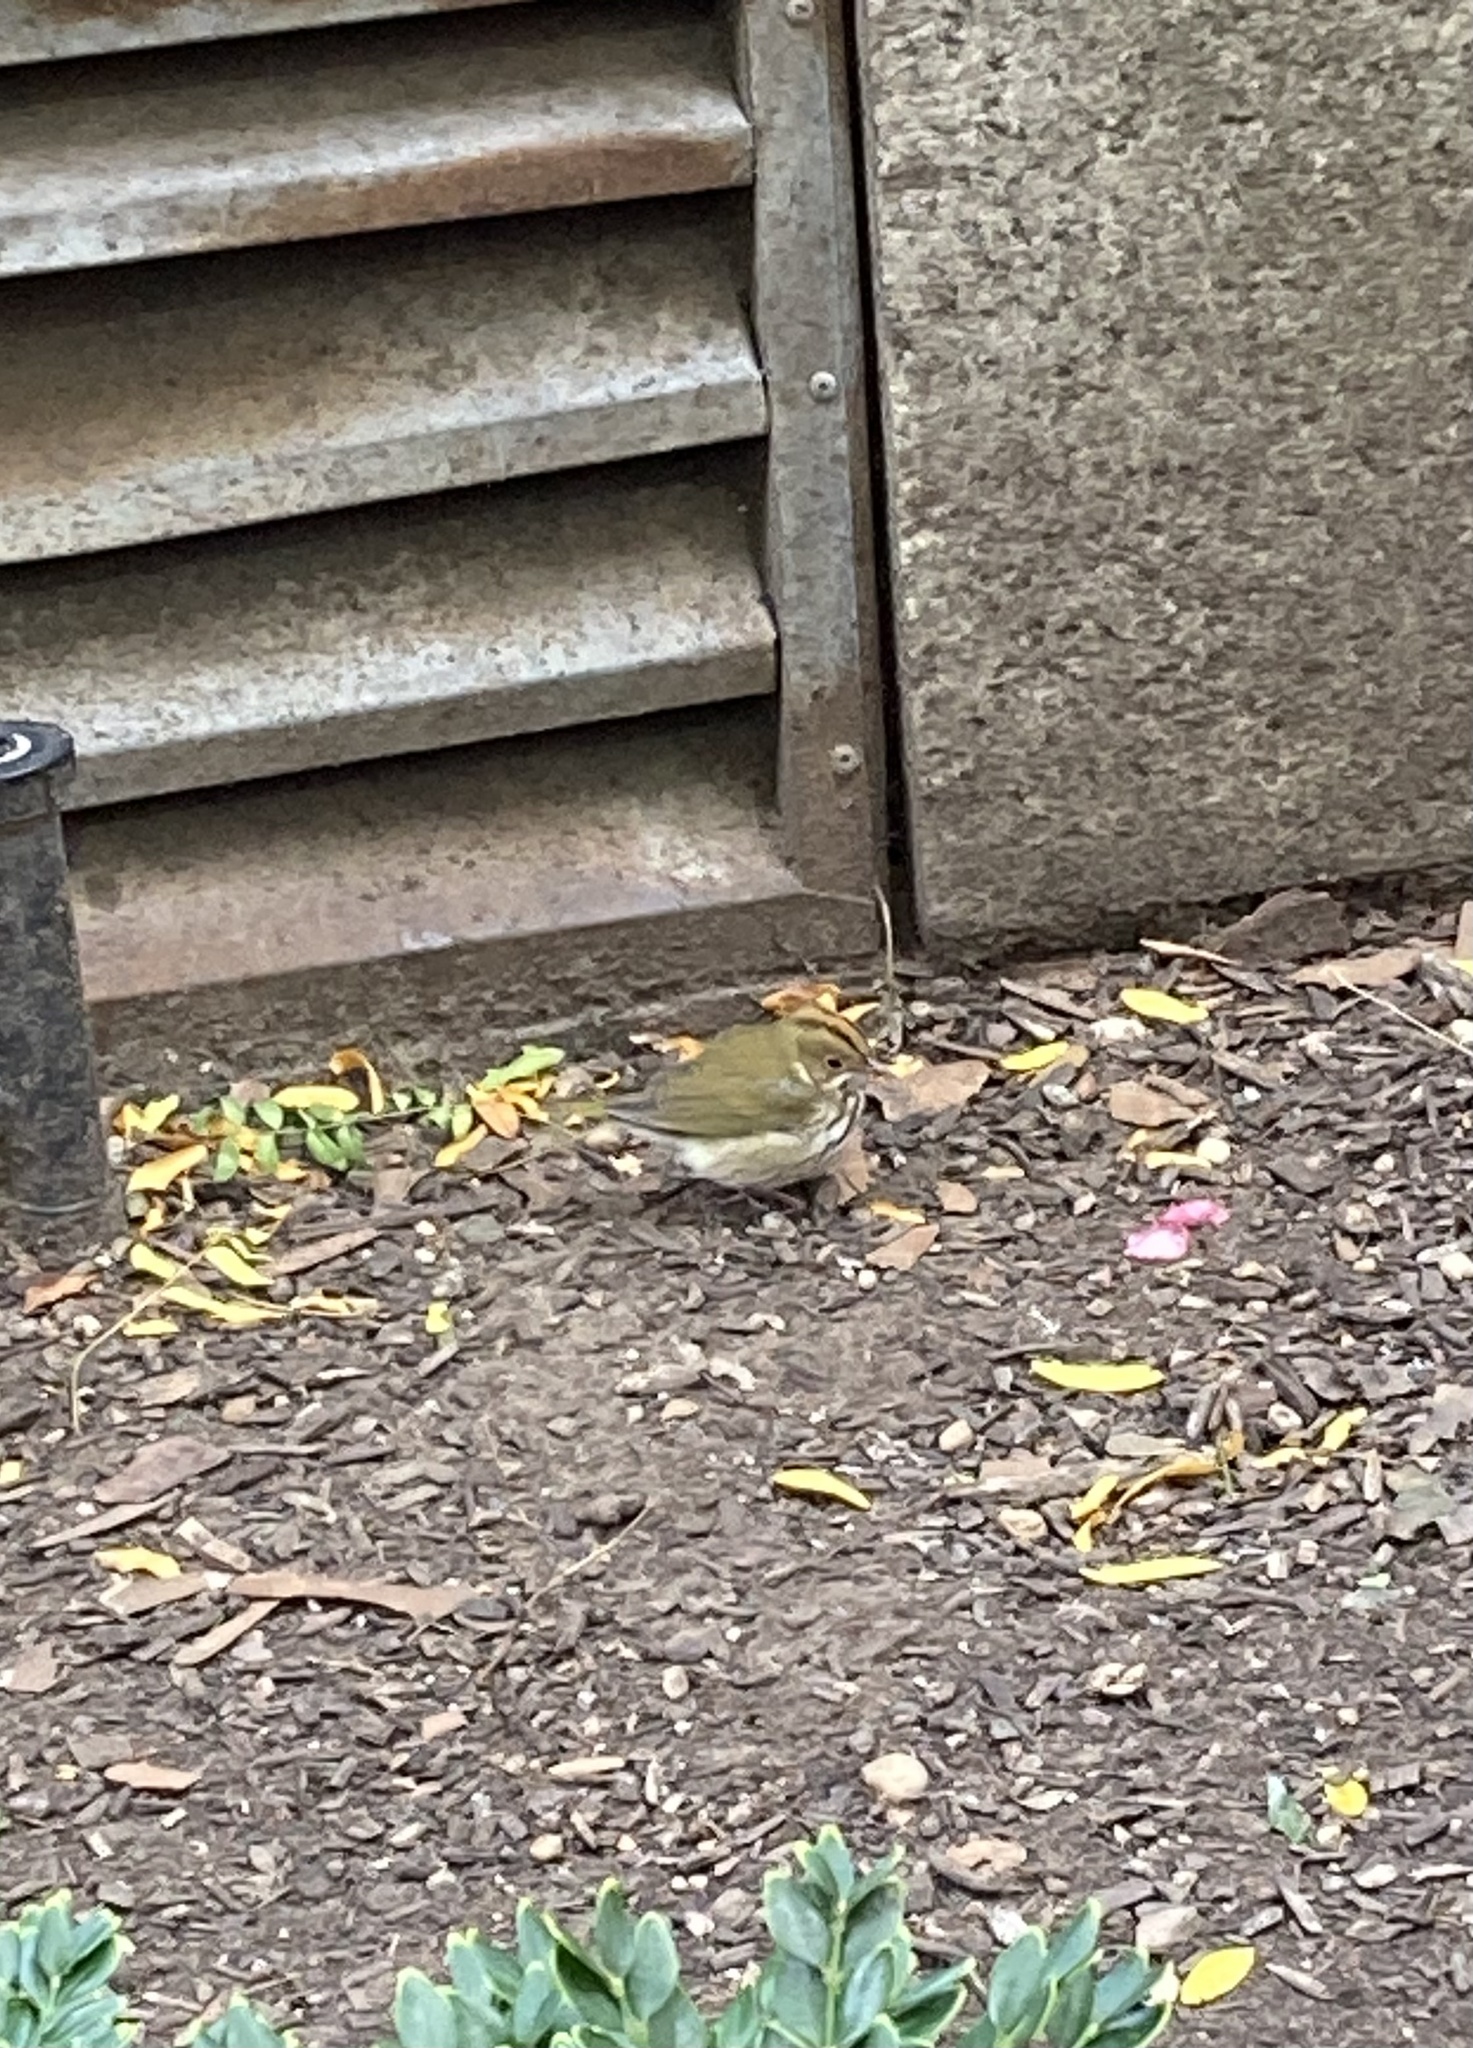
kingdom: Animalia
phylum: Chordata
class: Aves
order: Passeriformes
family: Parulidae
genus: Seiurus
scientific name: Seiurus aurocapilla
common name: Ovenbird
